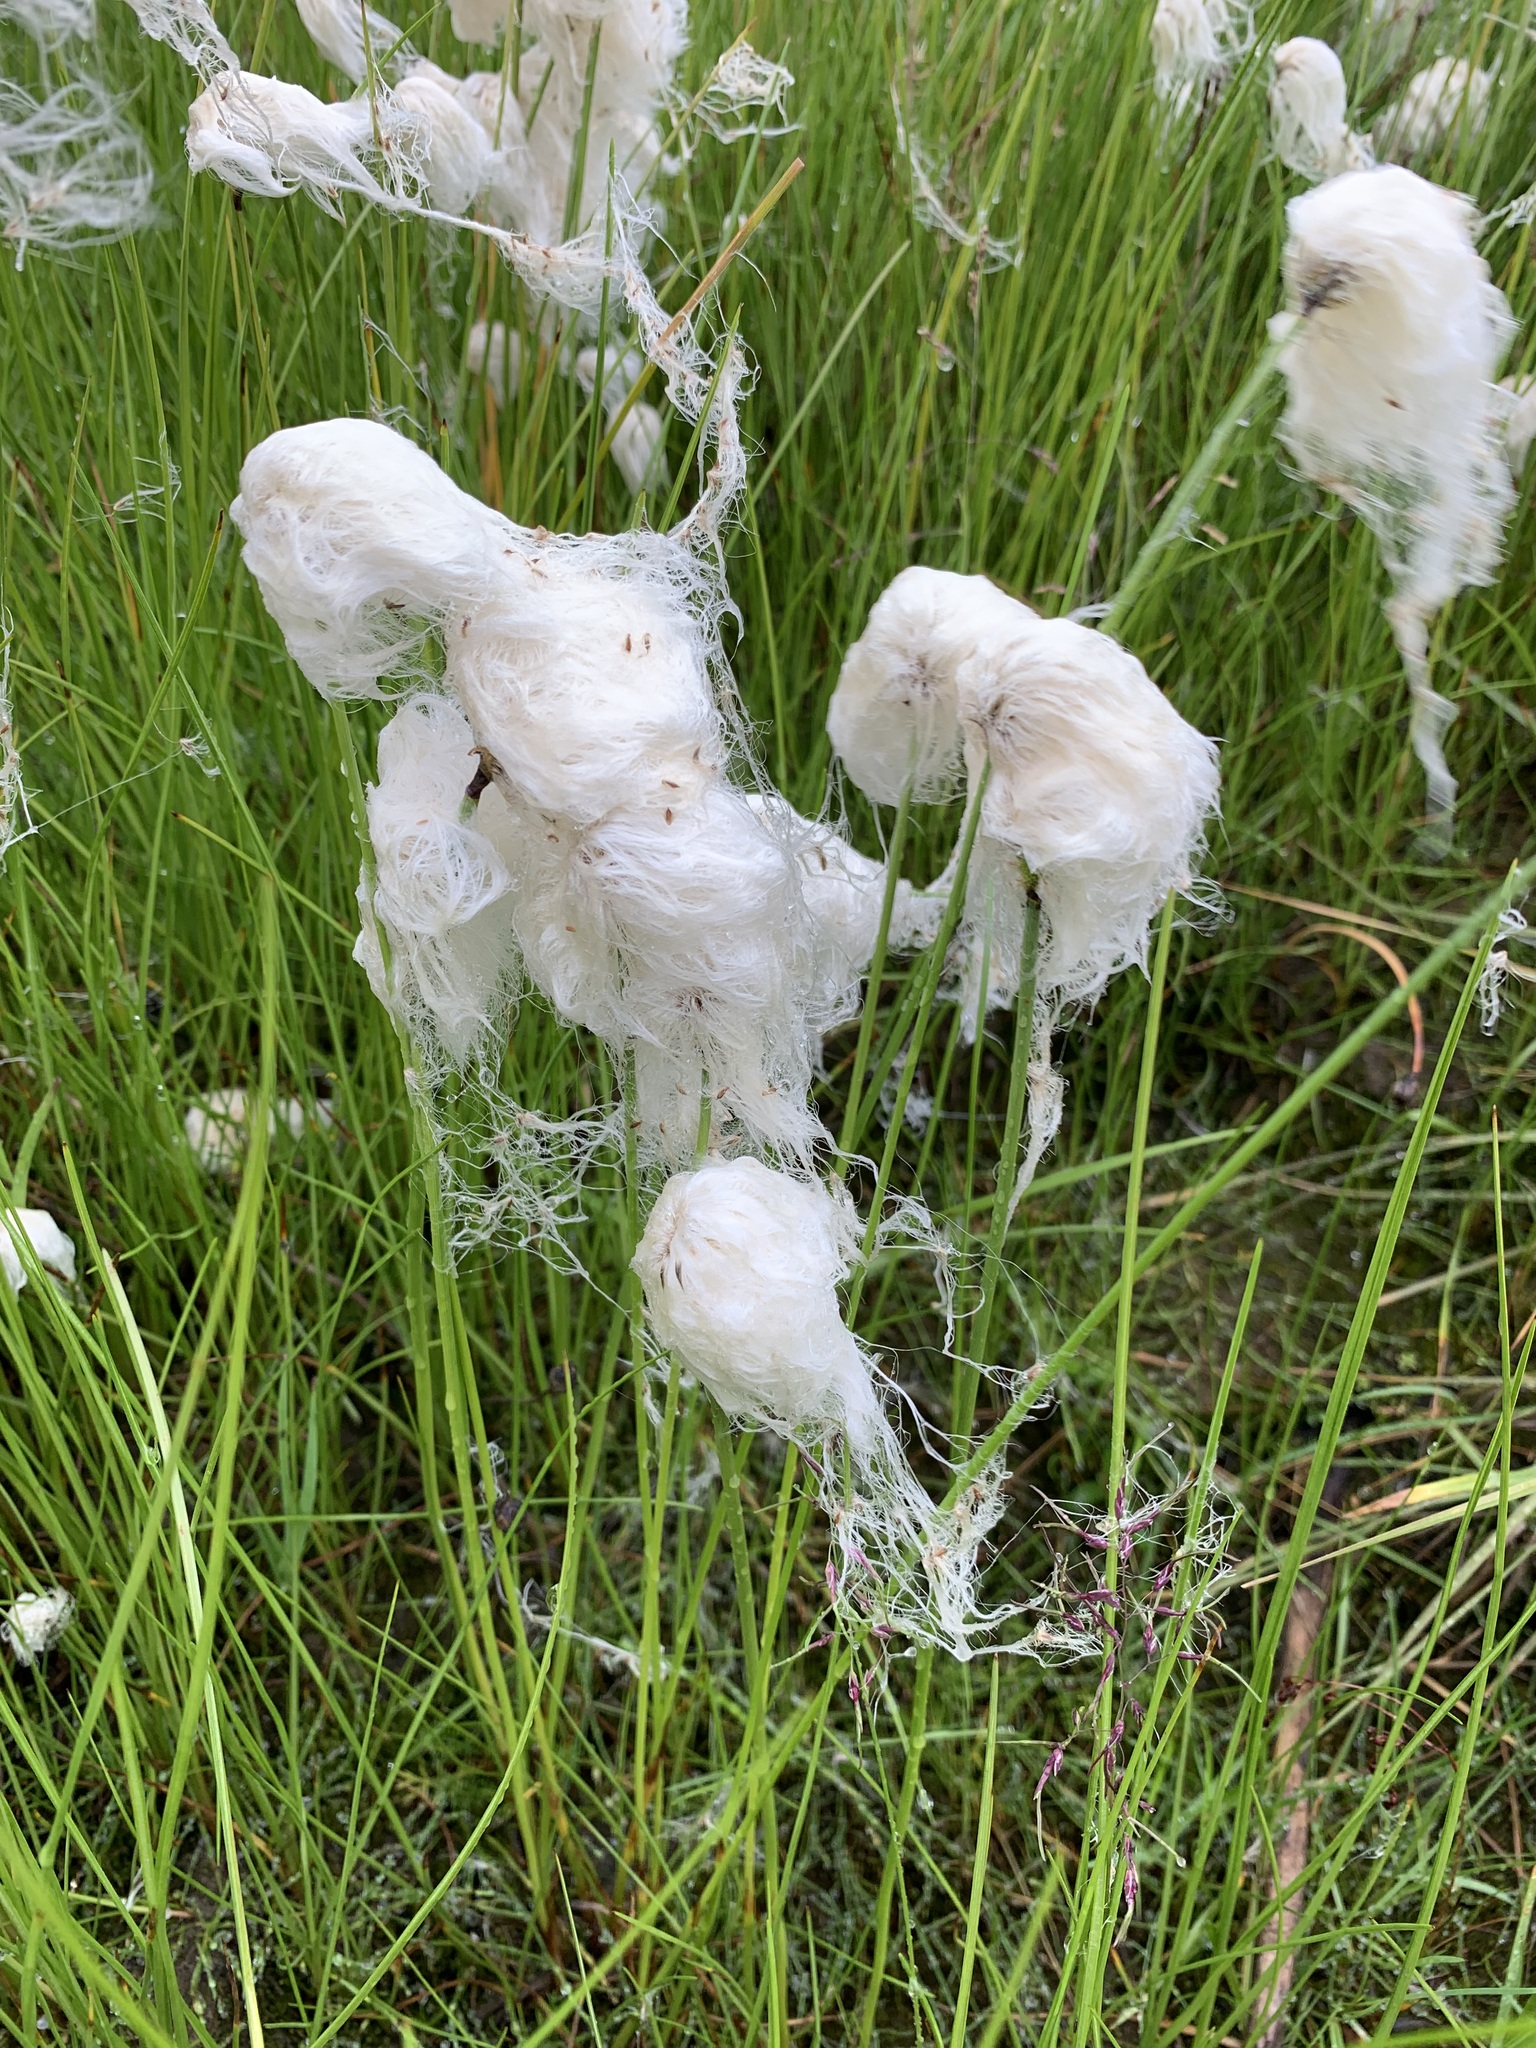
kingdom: Plantae
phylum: Tracheophyta
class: Liliopsida
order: Poales
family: Cyperaceae
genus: Eriophorum
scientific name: Eriophorum scheuchzeri
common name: Scheuchzer's cottongrass
